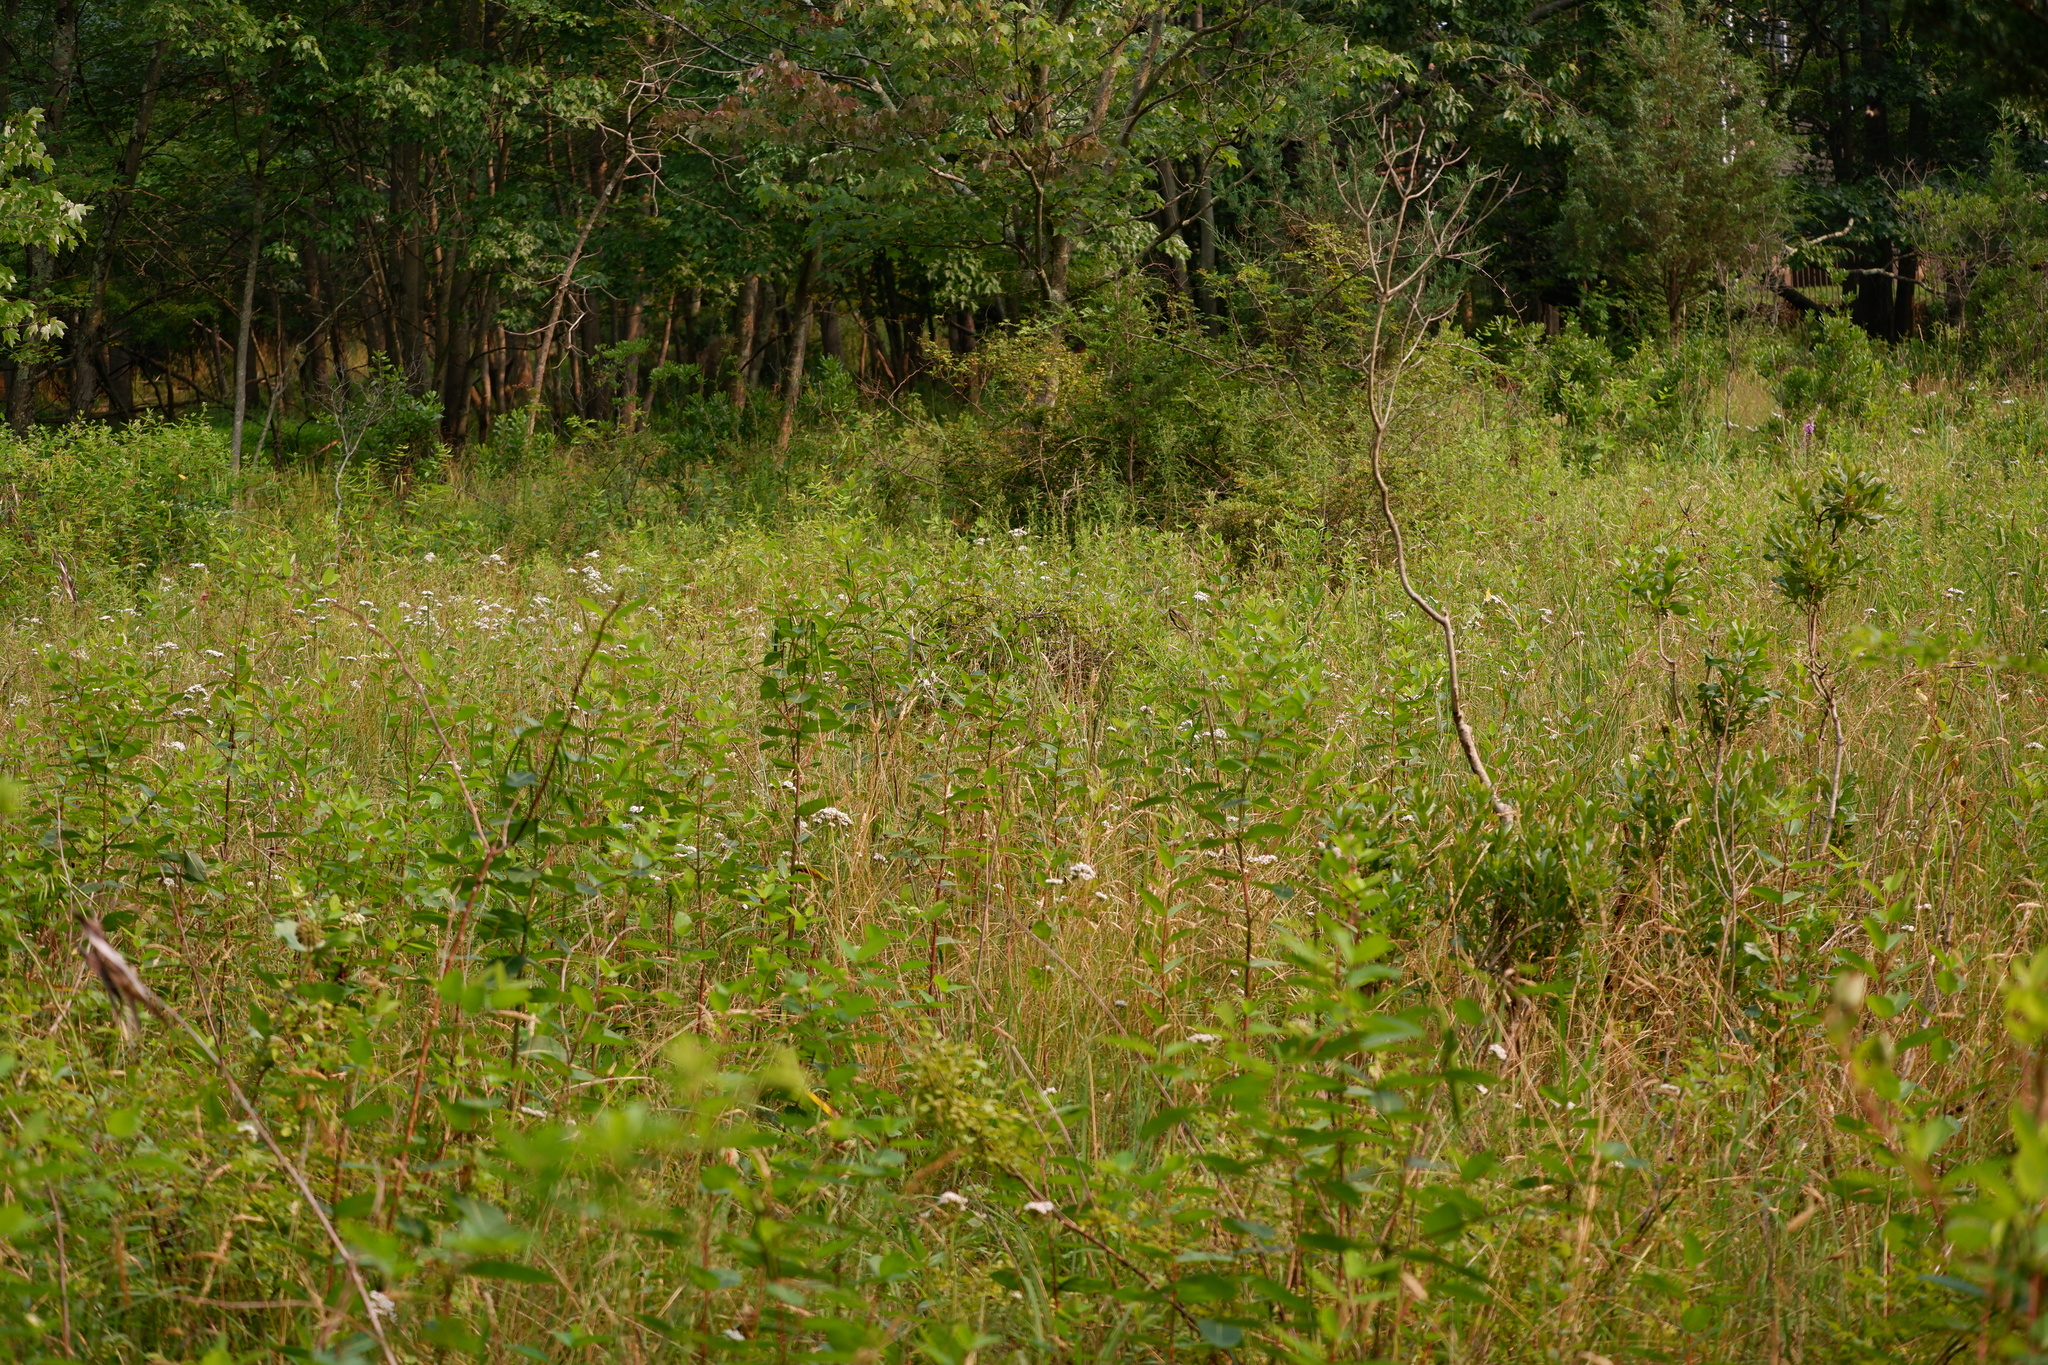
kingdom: Plantae
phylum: Tracheophyta
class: Magnoliopsida
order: Gentianales
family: Apocynaceae
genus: Apocynum
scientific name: Apocynum cannabinum
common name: Hemp dogbane
